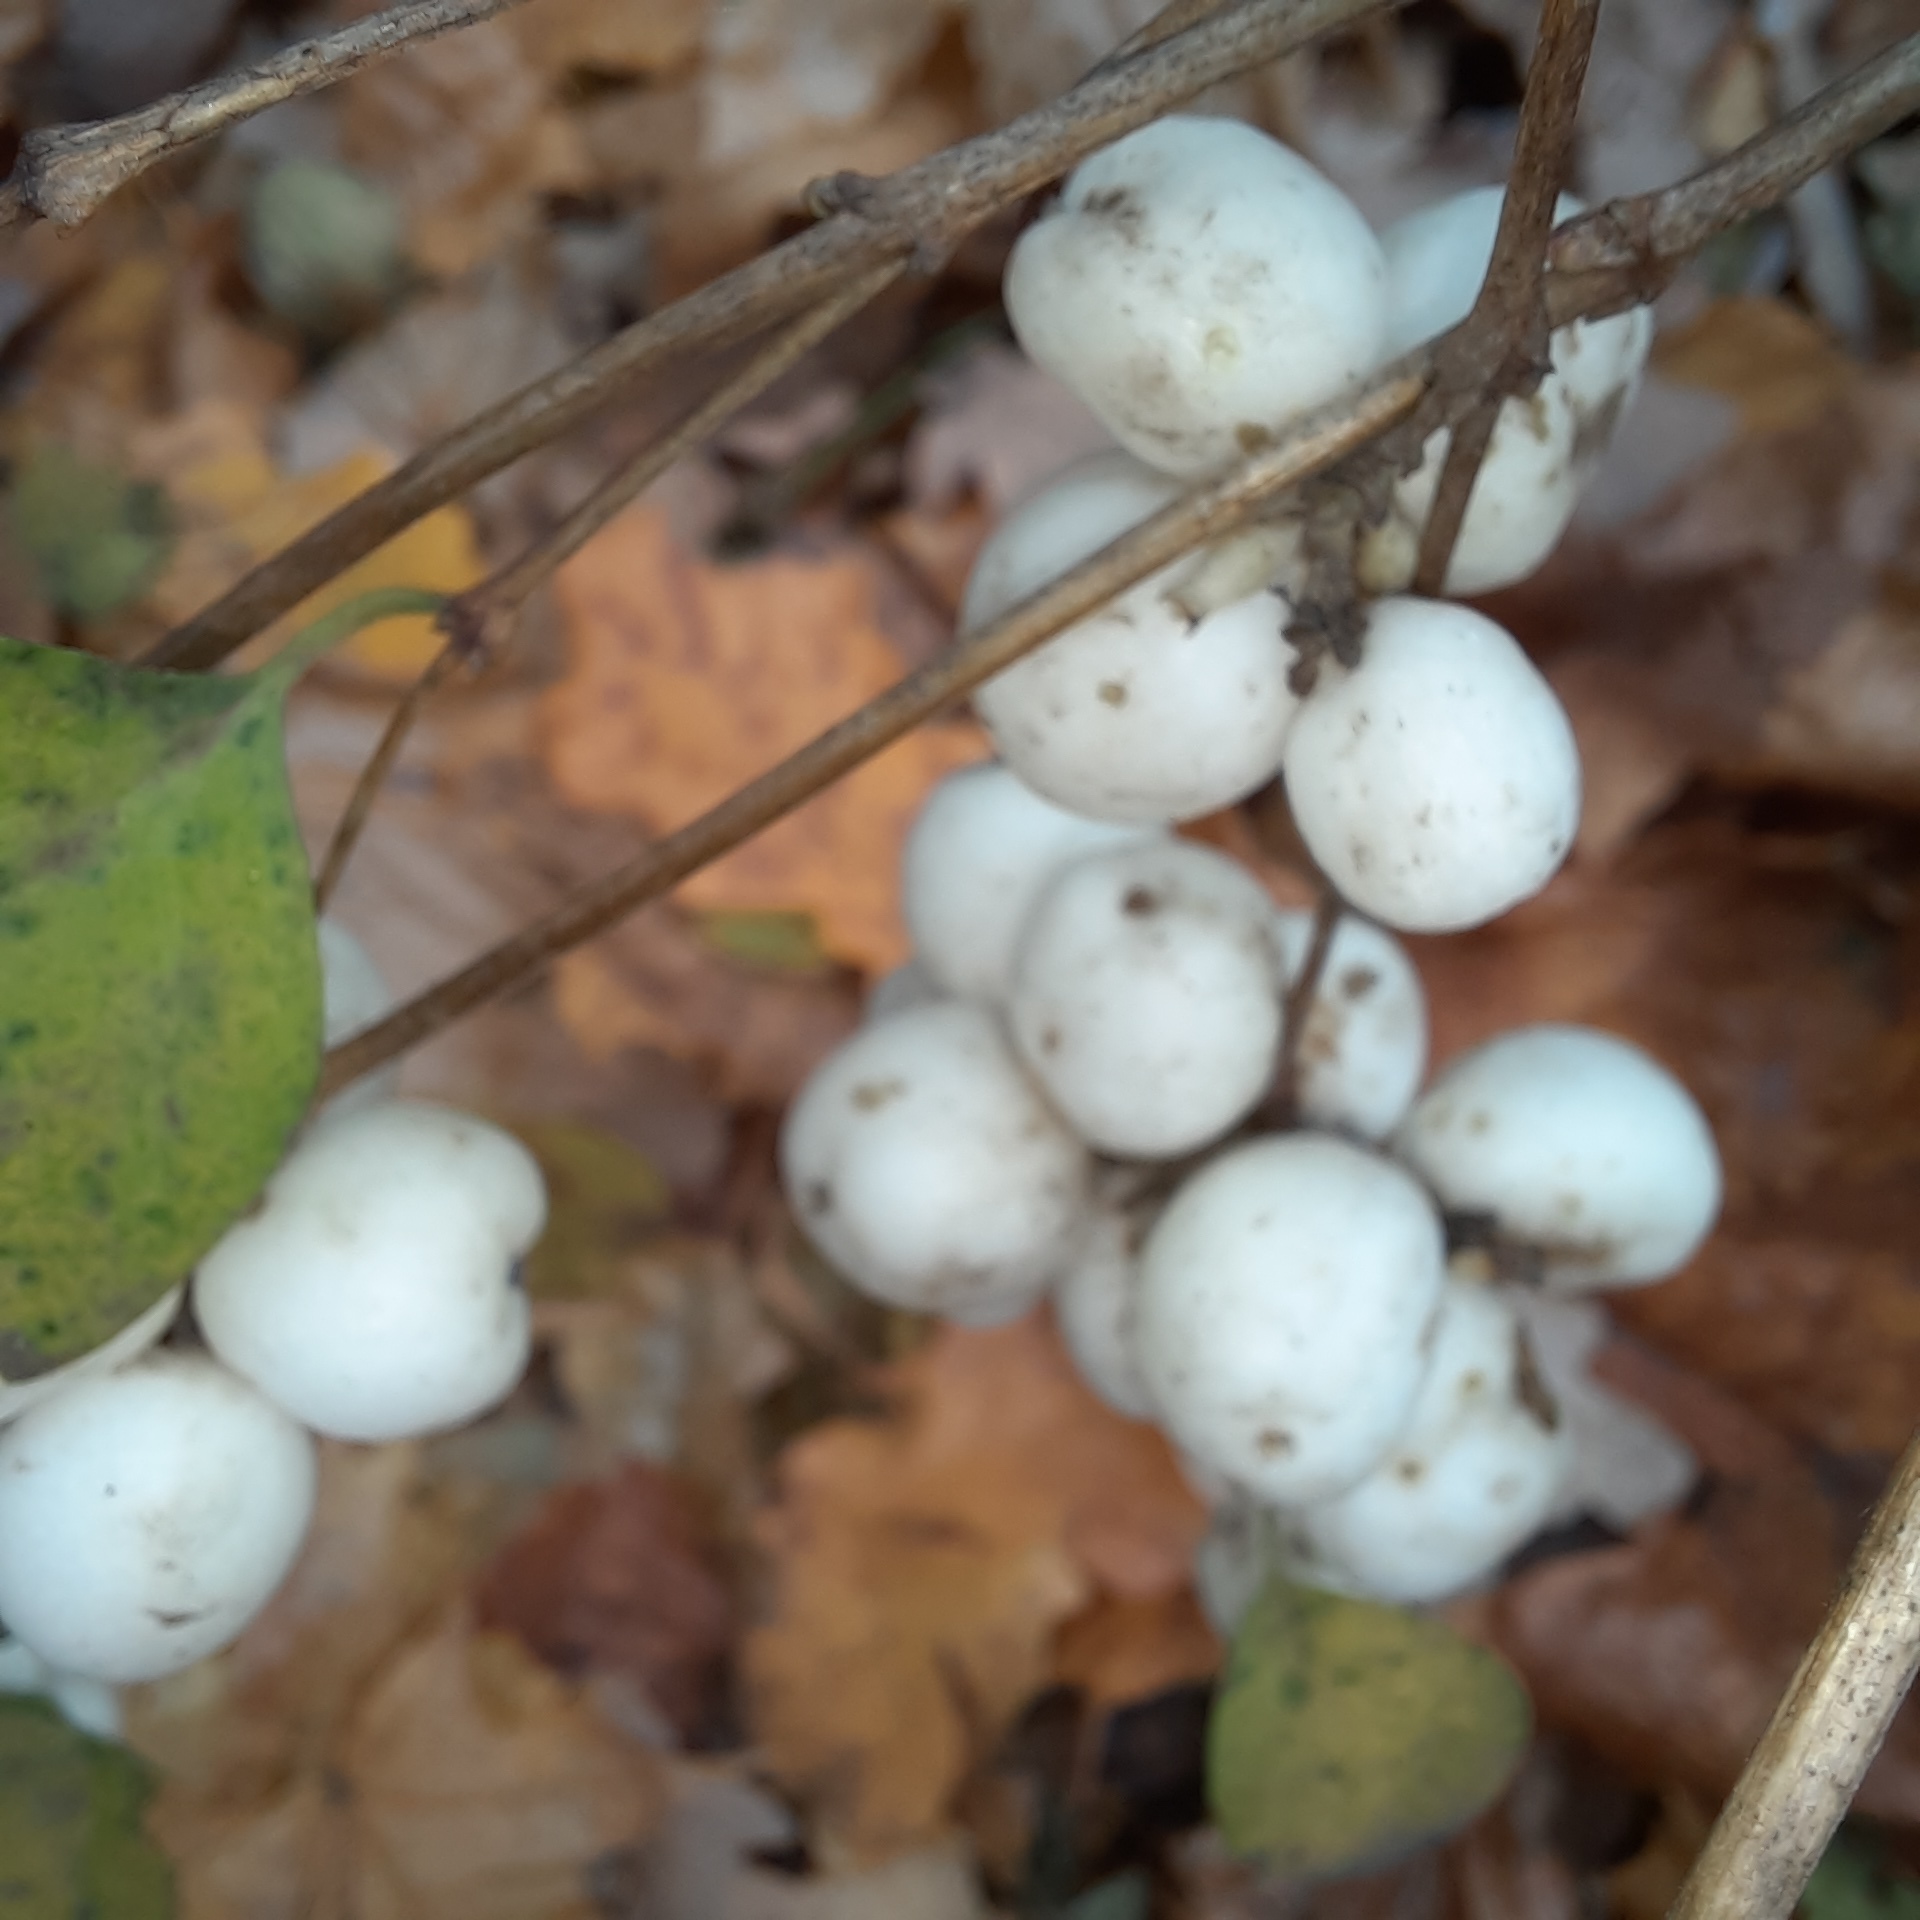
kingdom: Plantae
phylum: Tracheophyta
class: Magnoliopsida
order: Dipsacales
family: Caprifoliaceae
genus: Symphoricarpos
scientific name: Symphoricarpos albus
